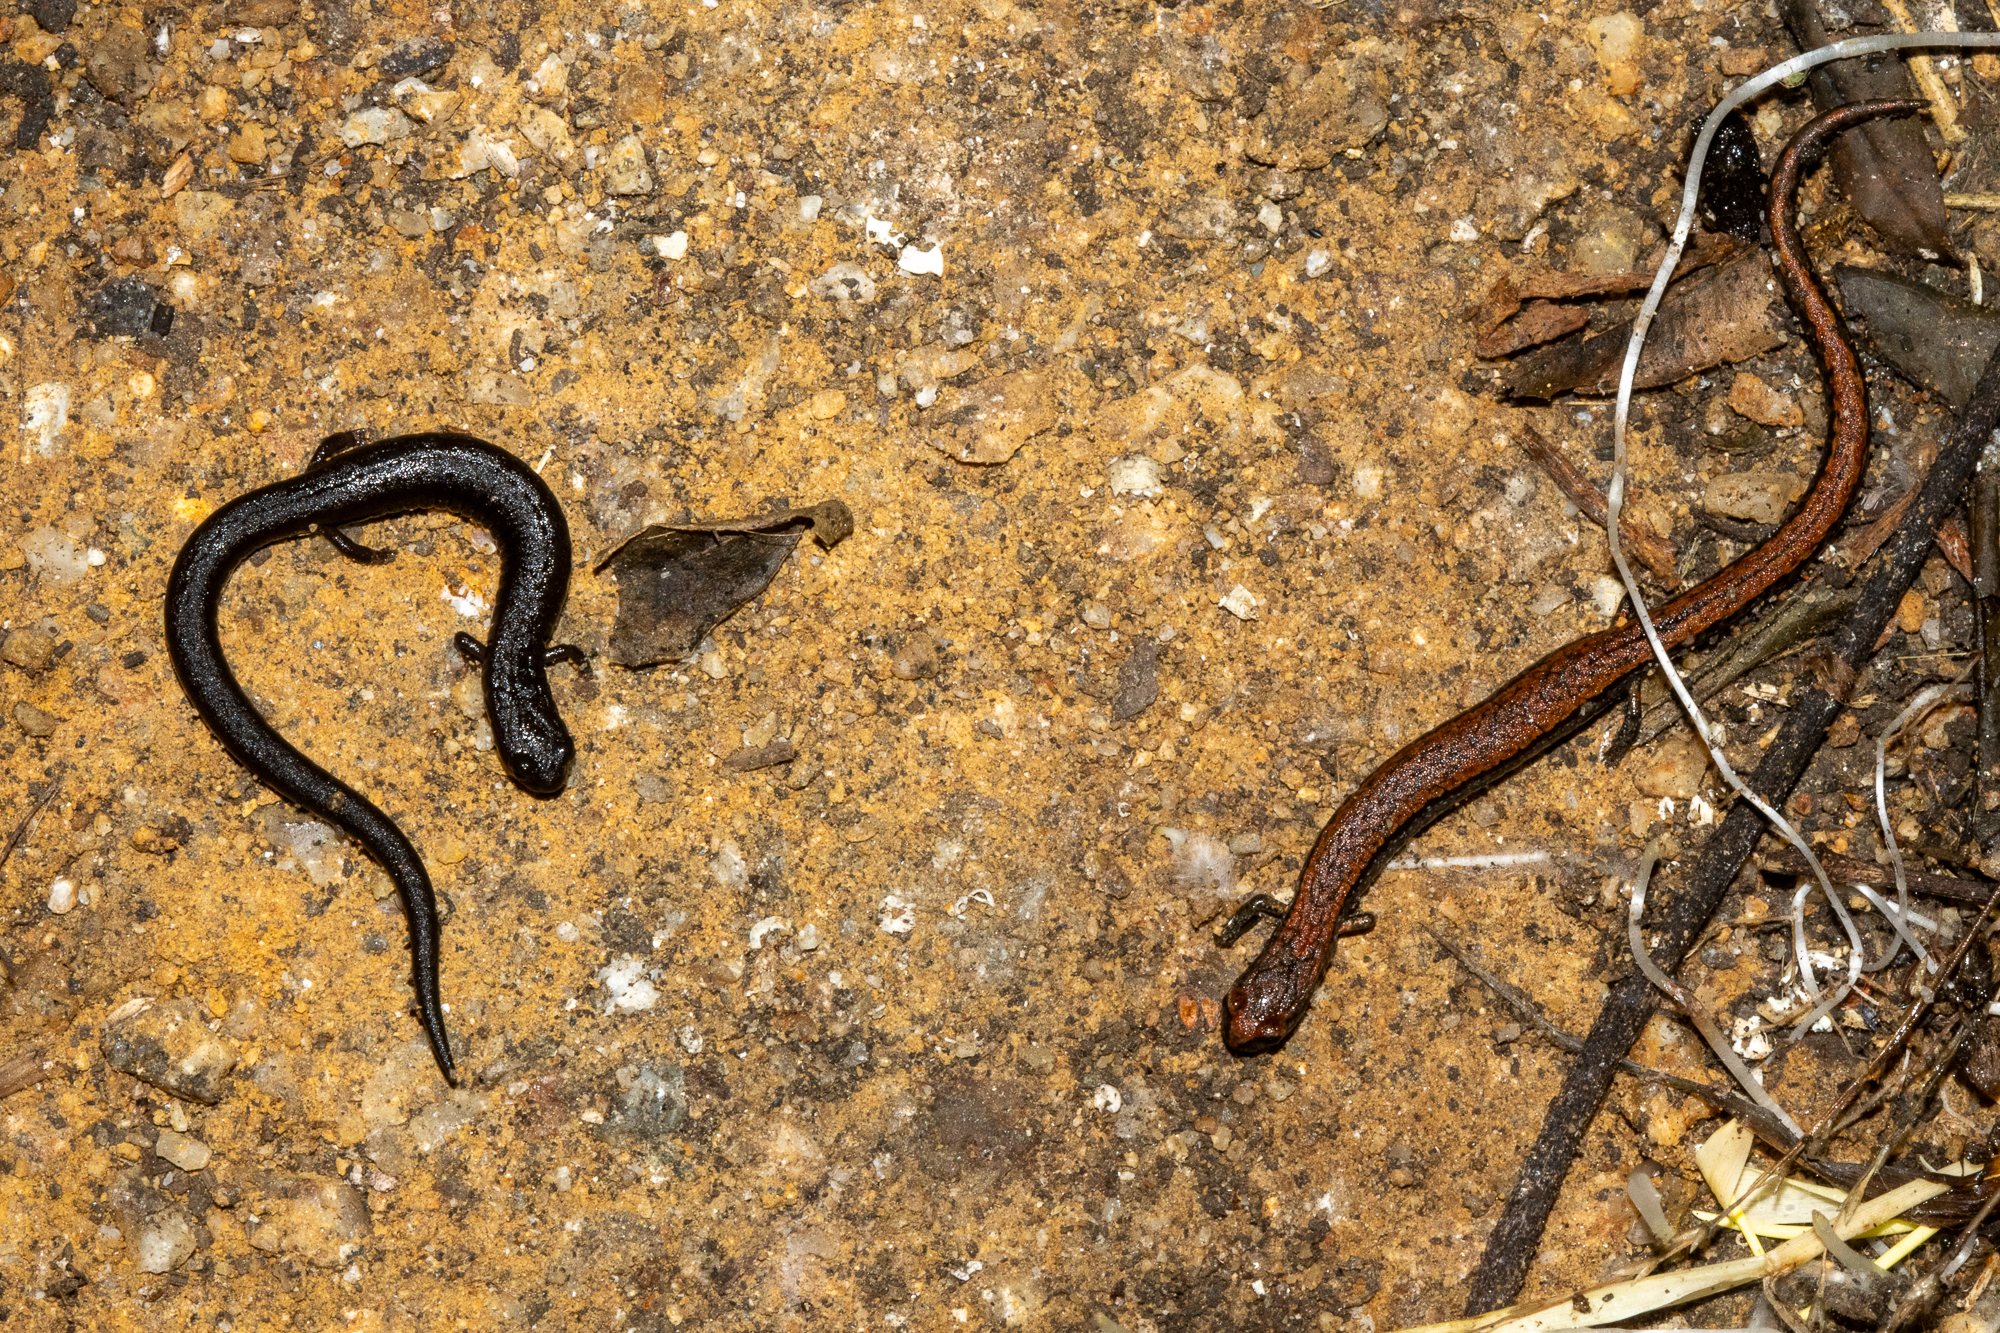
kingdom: Animalia
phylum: Chordata
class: Amphibia
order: Caudata
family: Plethodontidae
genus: Batrachoseps
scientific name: Batrachoseps attenuatus
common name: California slender salamander
